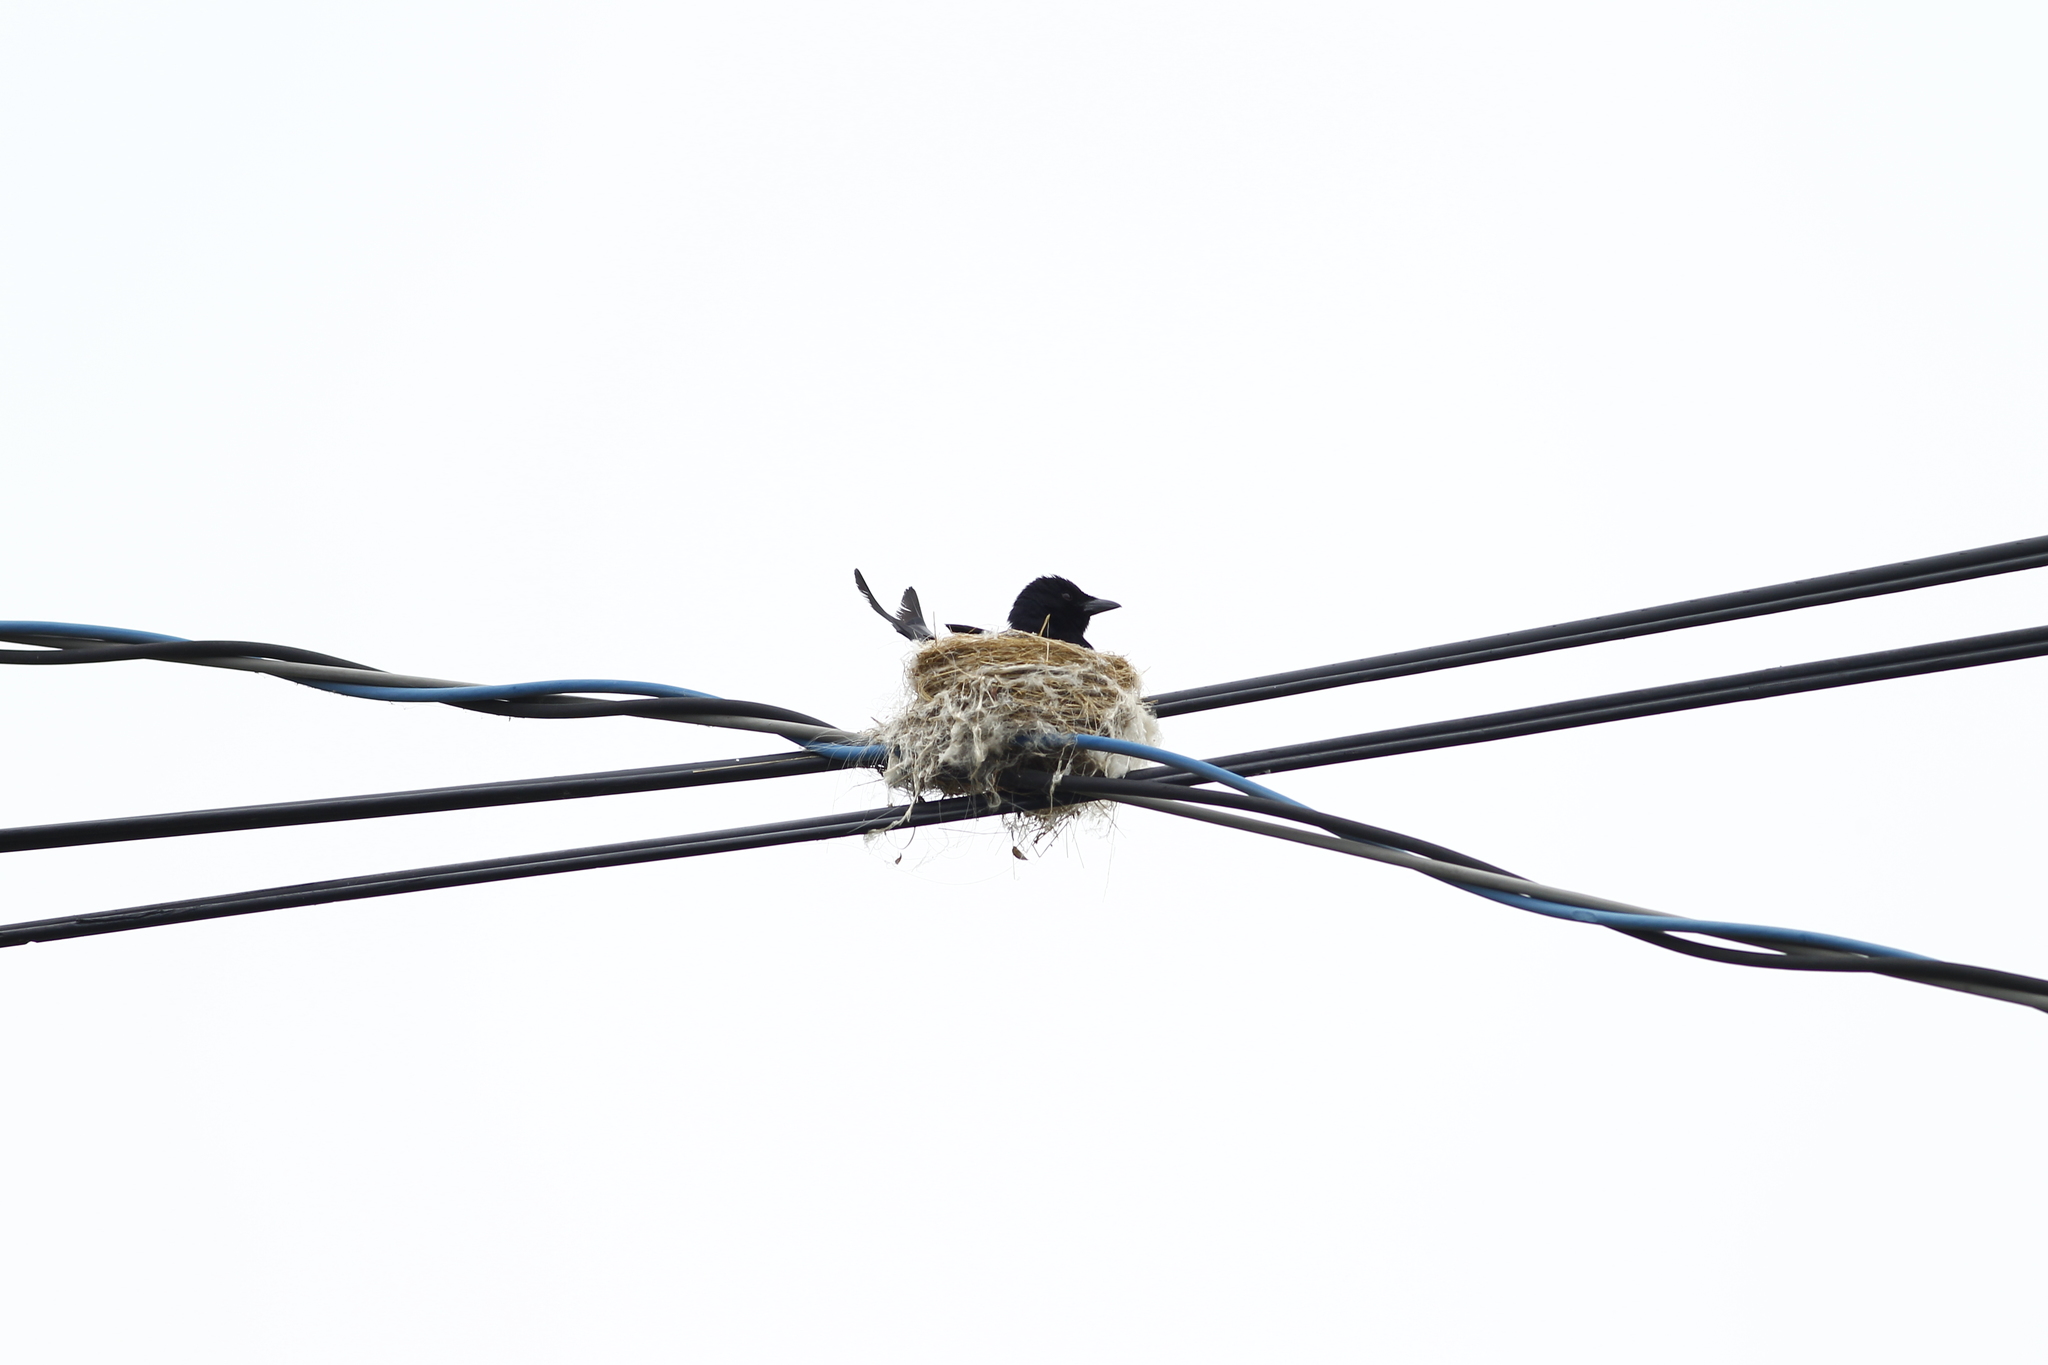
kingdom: Animalia
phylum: Chordata
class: Aves
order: Passeriformes
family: Dicruridae
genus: Dicrurus
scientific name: Dicrurus macrocercus
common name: Black drongo
